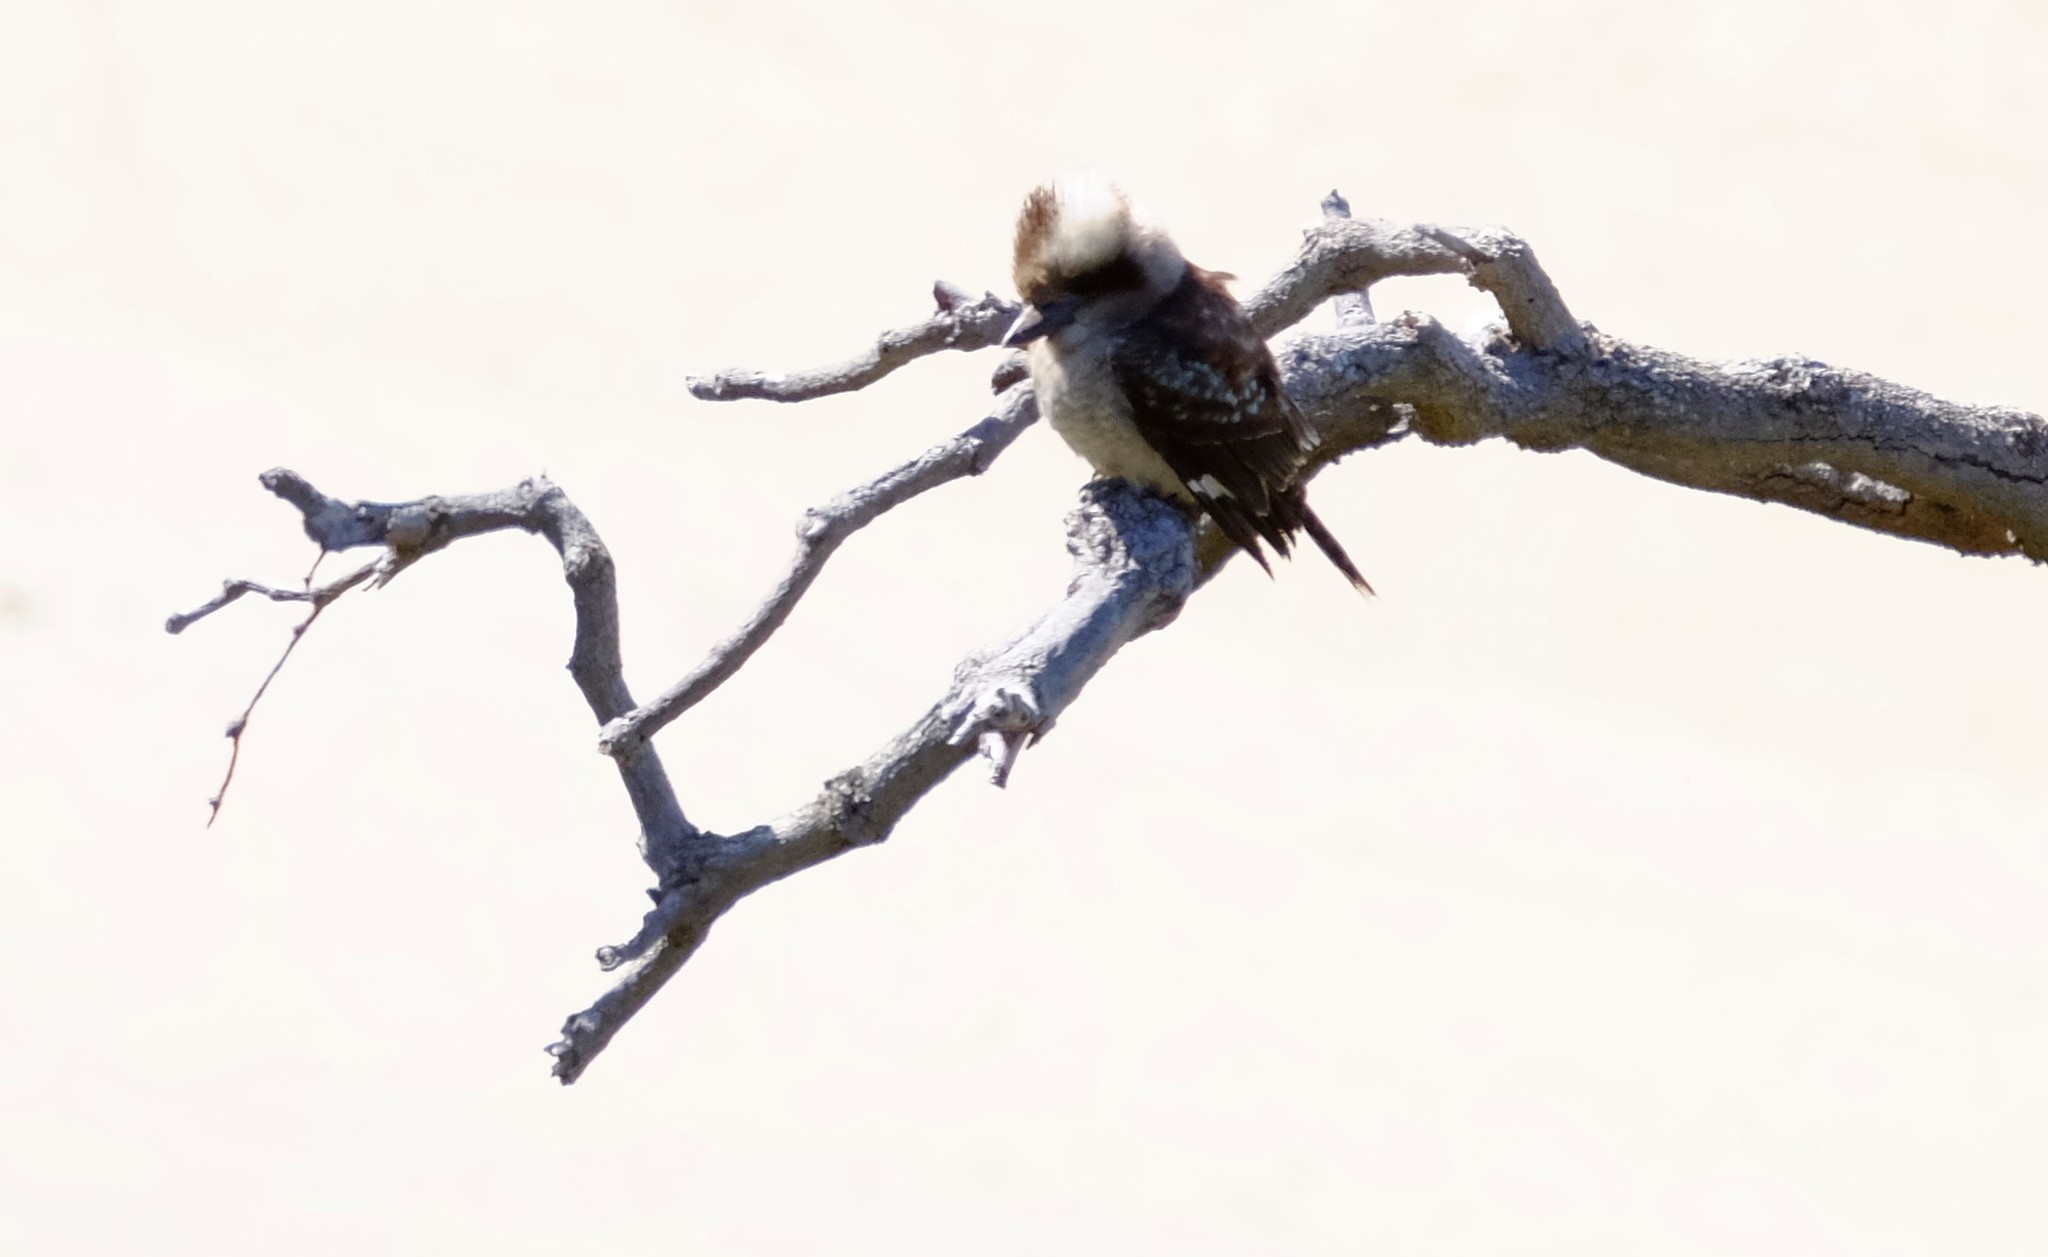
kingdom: Animalia
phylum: Chordata
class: Aves
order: Coraciiformes
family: Alcedinidae
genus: Dacelo
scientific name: Dacelo novaeguineae
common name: Laughing kookaburra
